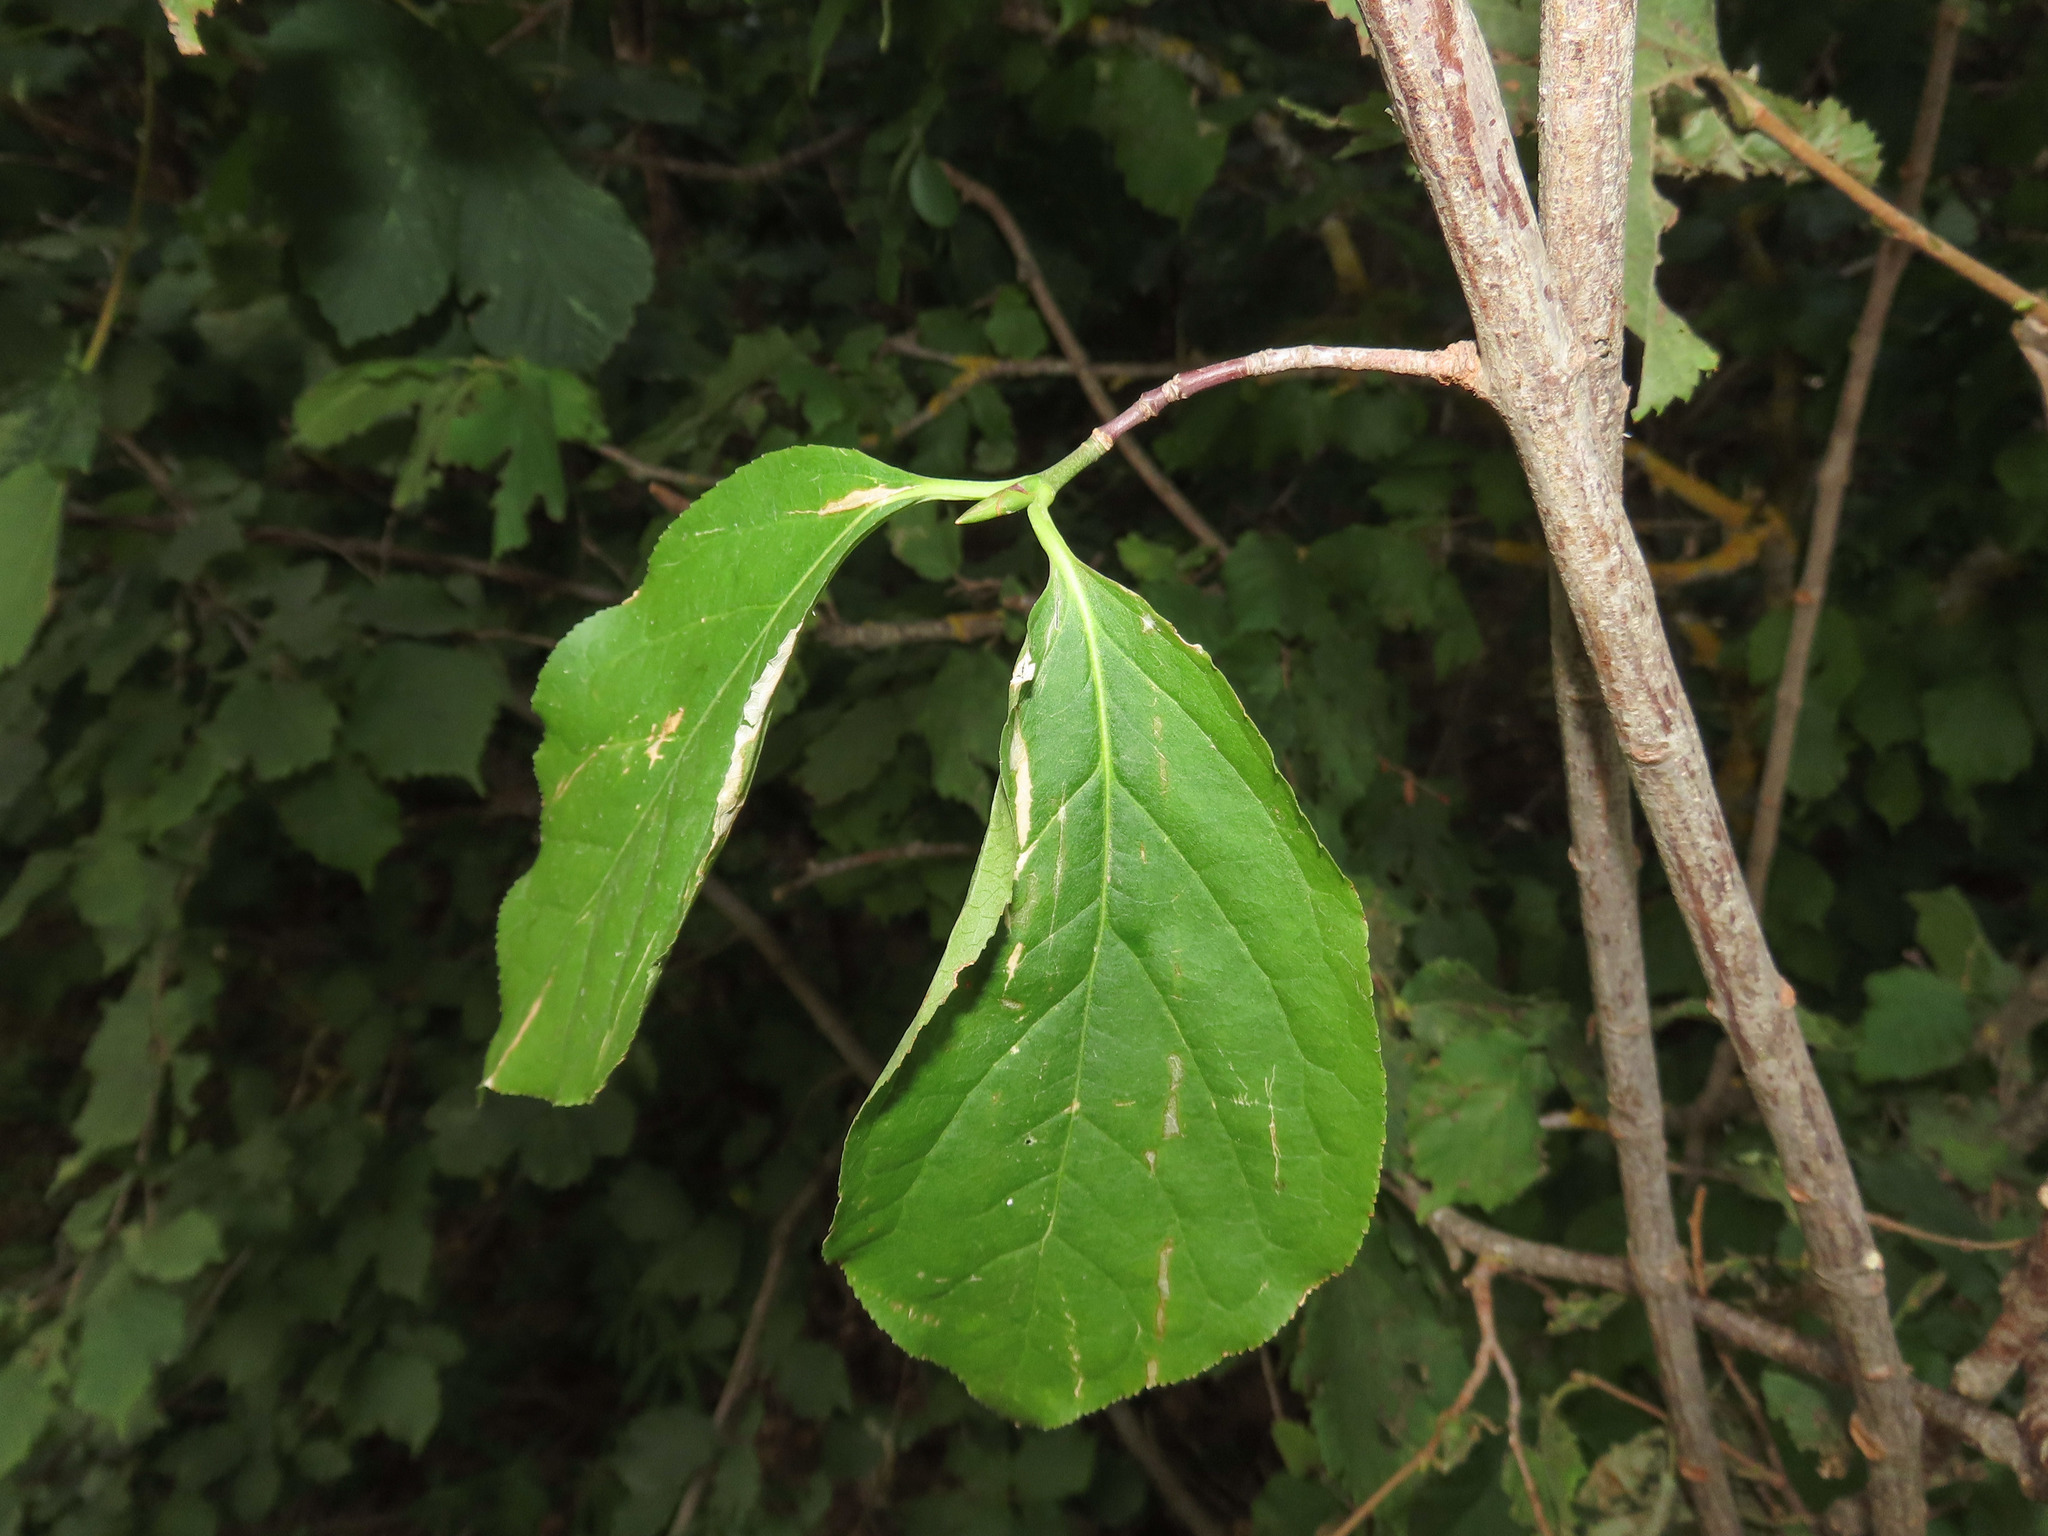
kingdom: Plantae
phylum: Tracheophyta
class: Magnoliopsida
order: Celastrales
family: Celastraceae
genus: Euonymus
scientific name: Euonymus latifolius
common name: Large-leaved spindle
